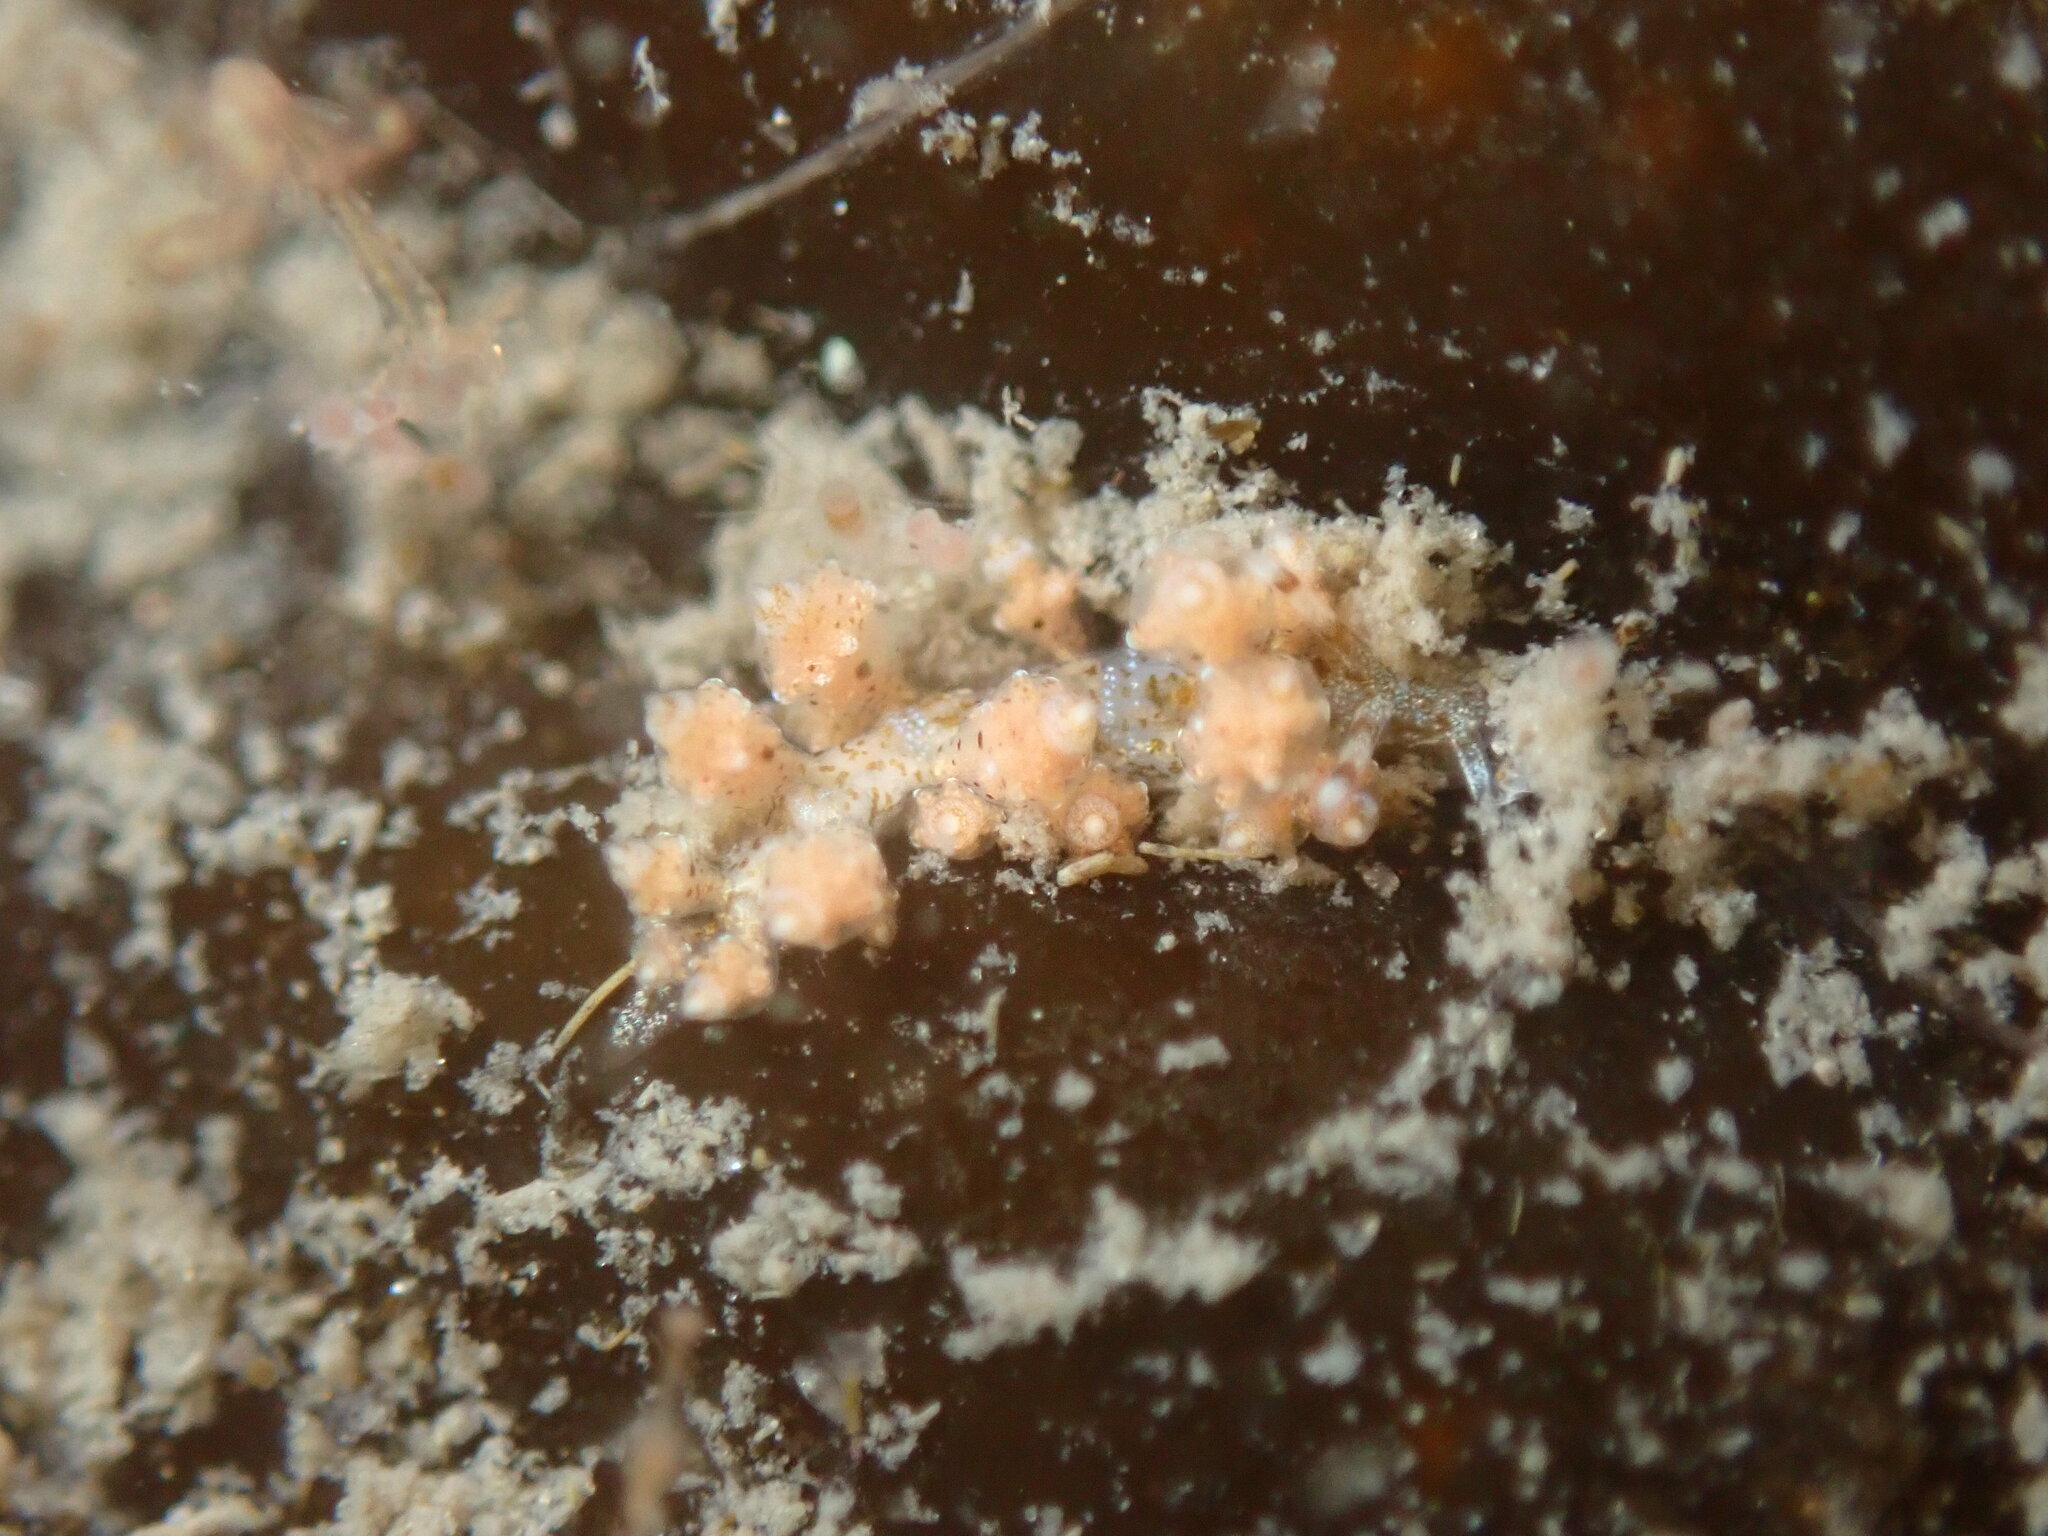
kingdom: Animalia
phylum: Mollusca
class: Gastropoda
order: Nudibranchia
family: Eubranchidae
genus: Eubranchus
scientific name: Eubranchus rustyus
